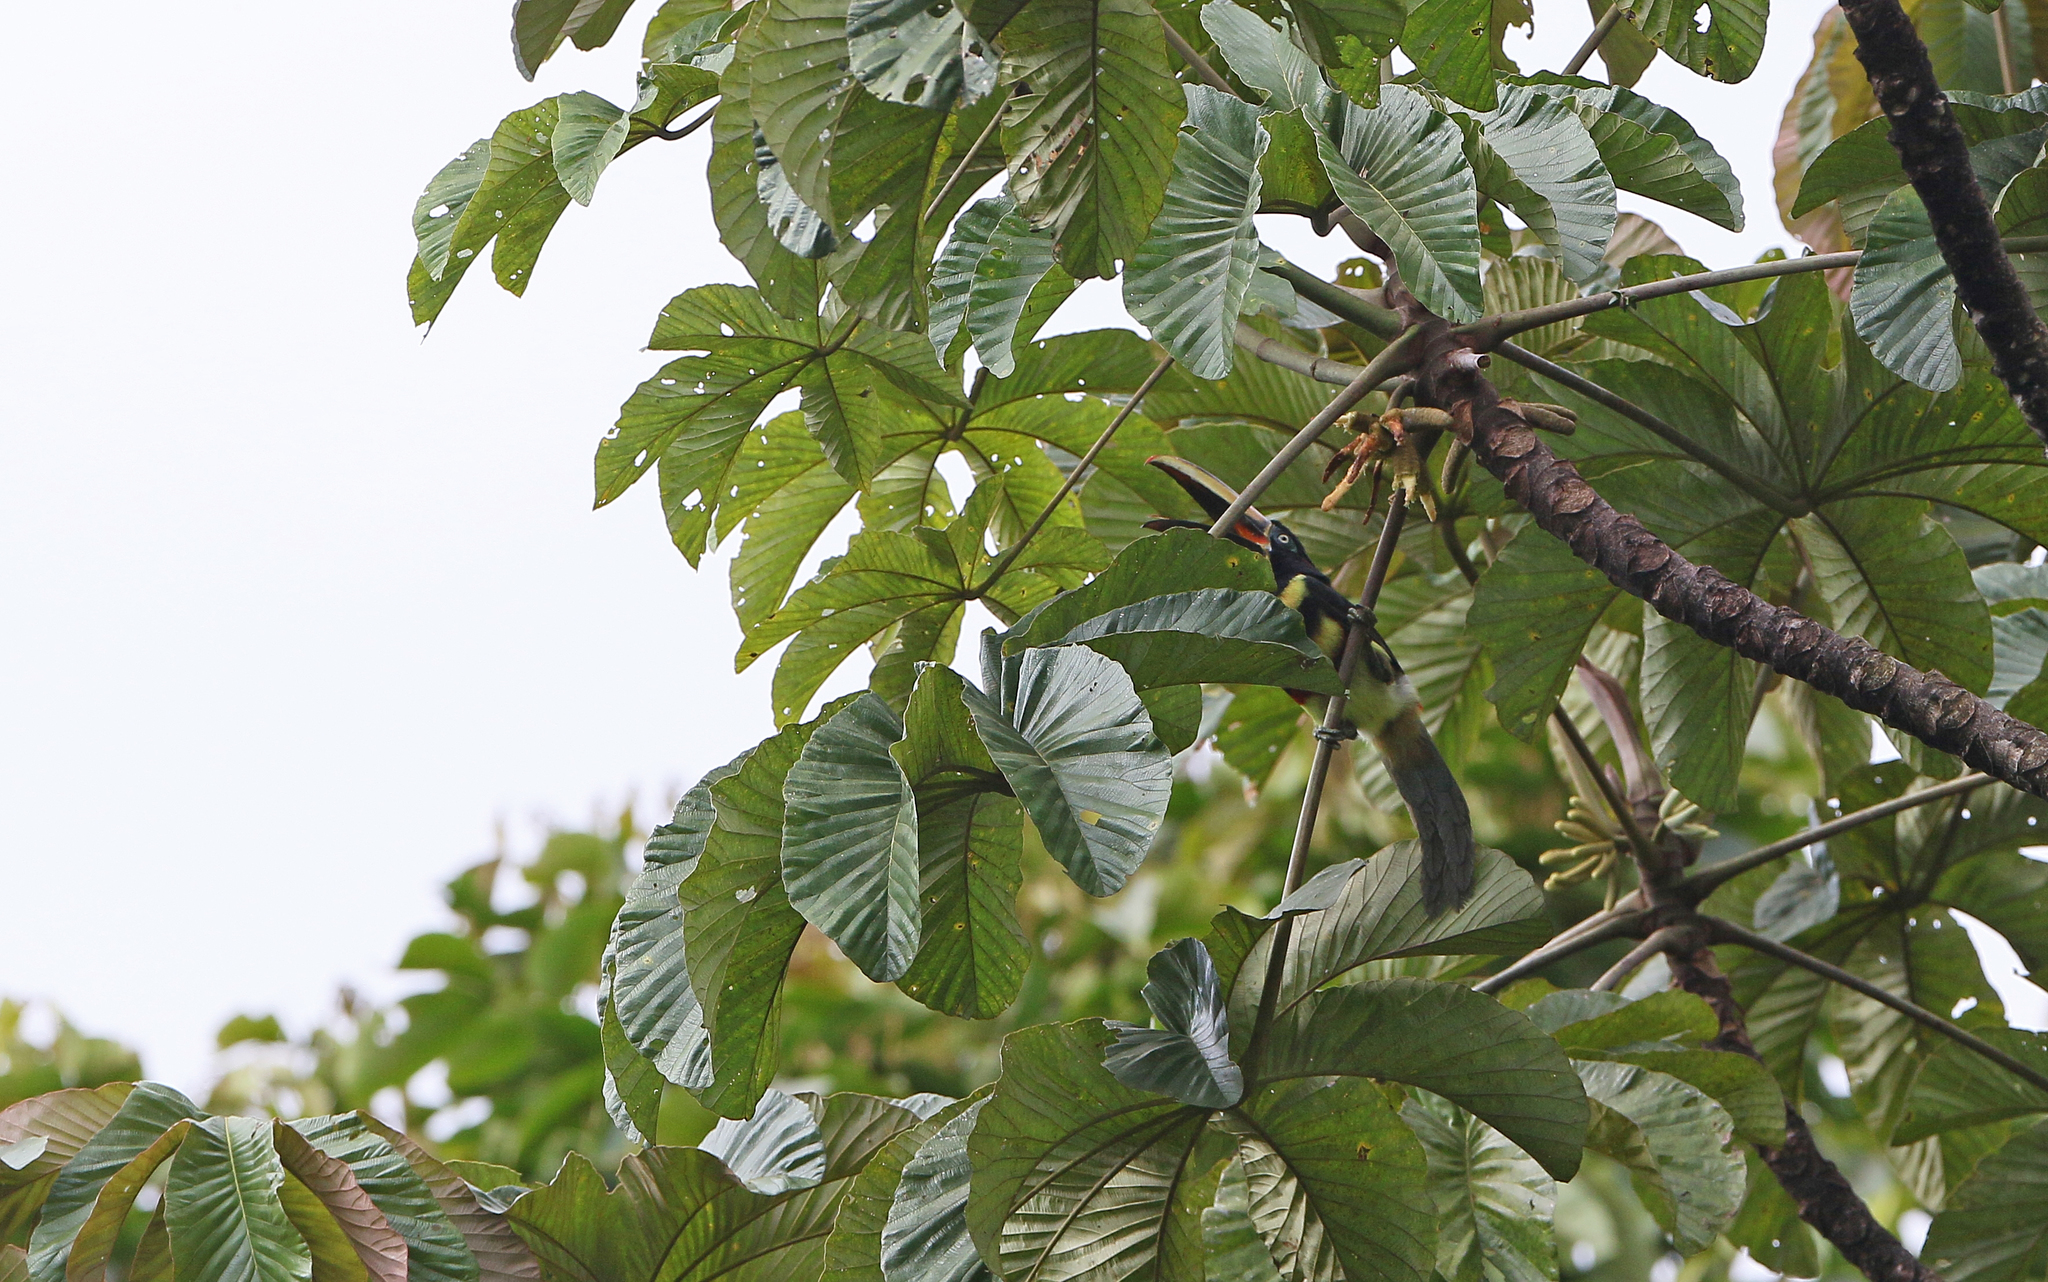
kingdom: Animalia
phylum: Chordata
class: Aves
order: Piciformes
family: Ramphastidae
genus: Pteroglossus
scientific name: Pteroglossus pluricinctus
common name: Many-banded aracari
